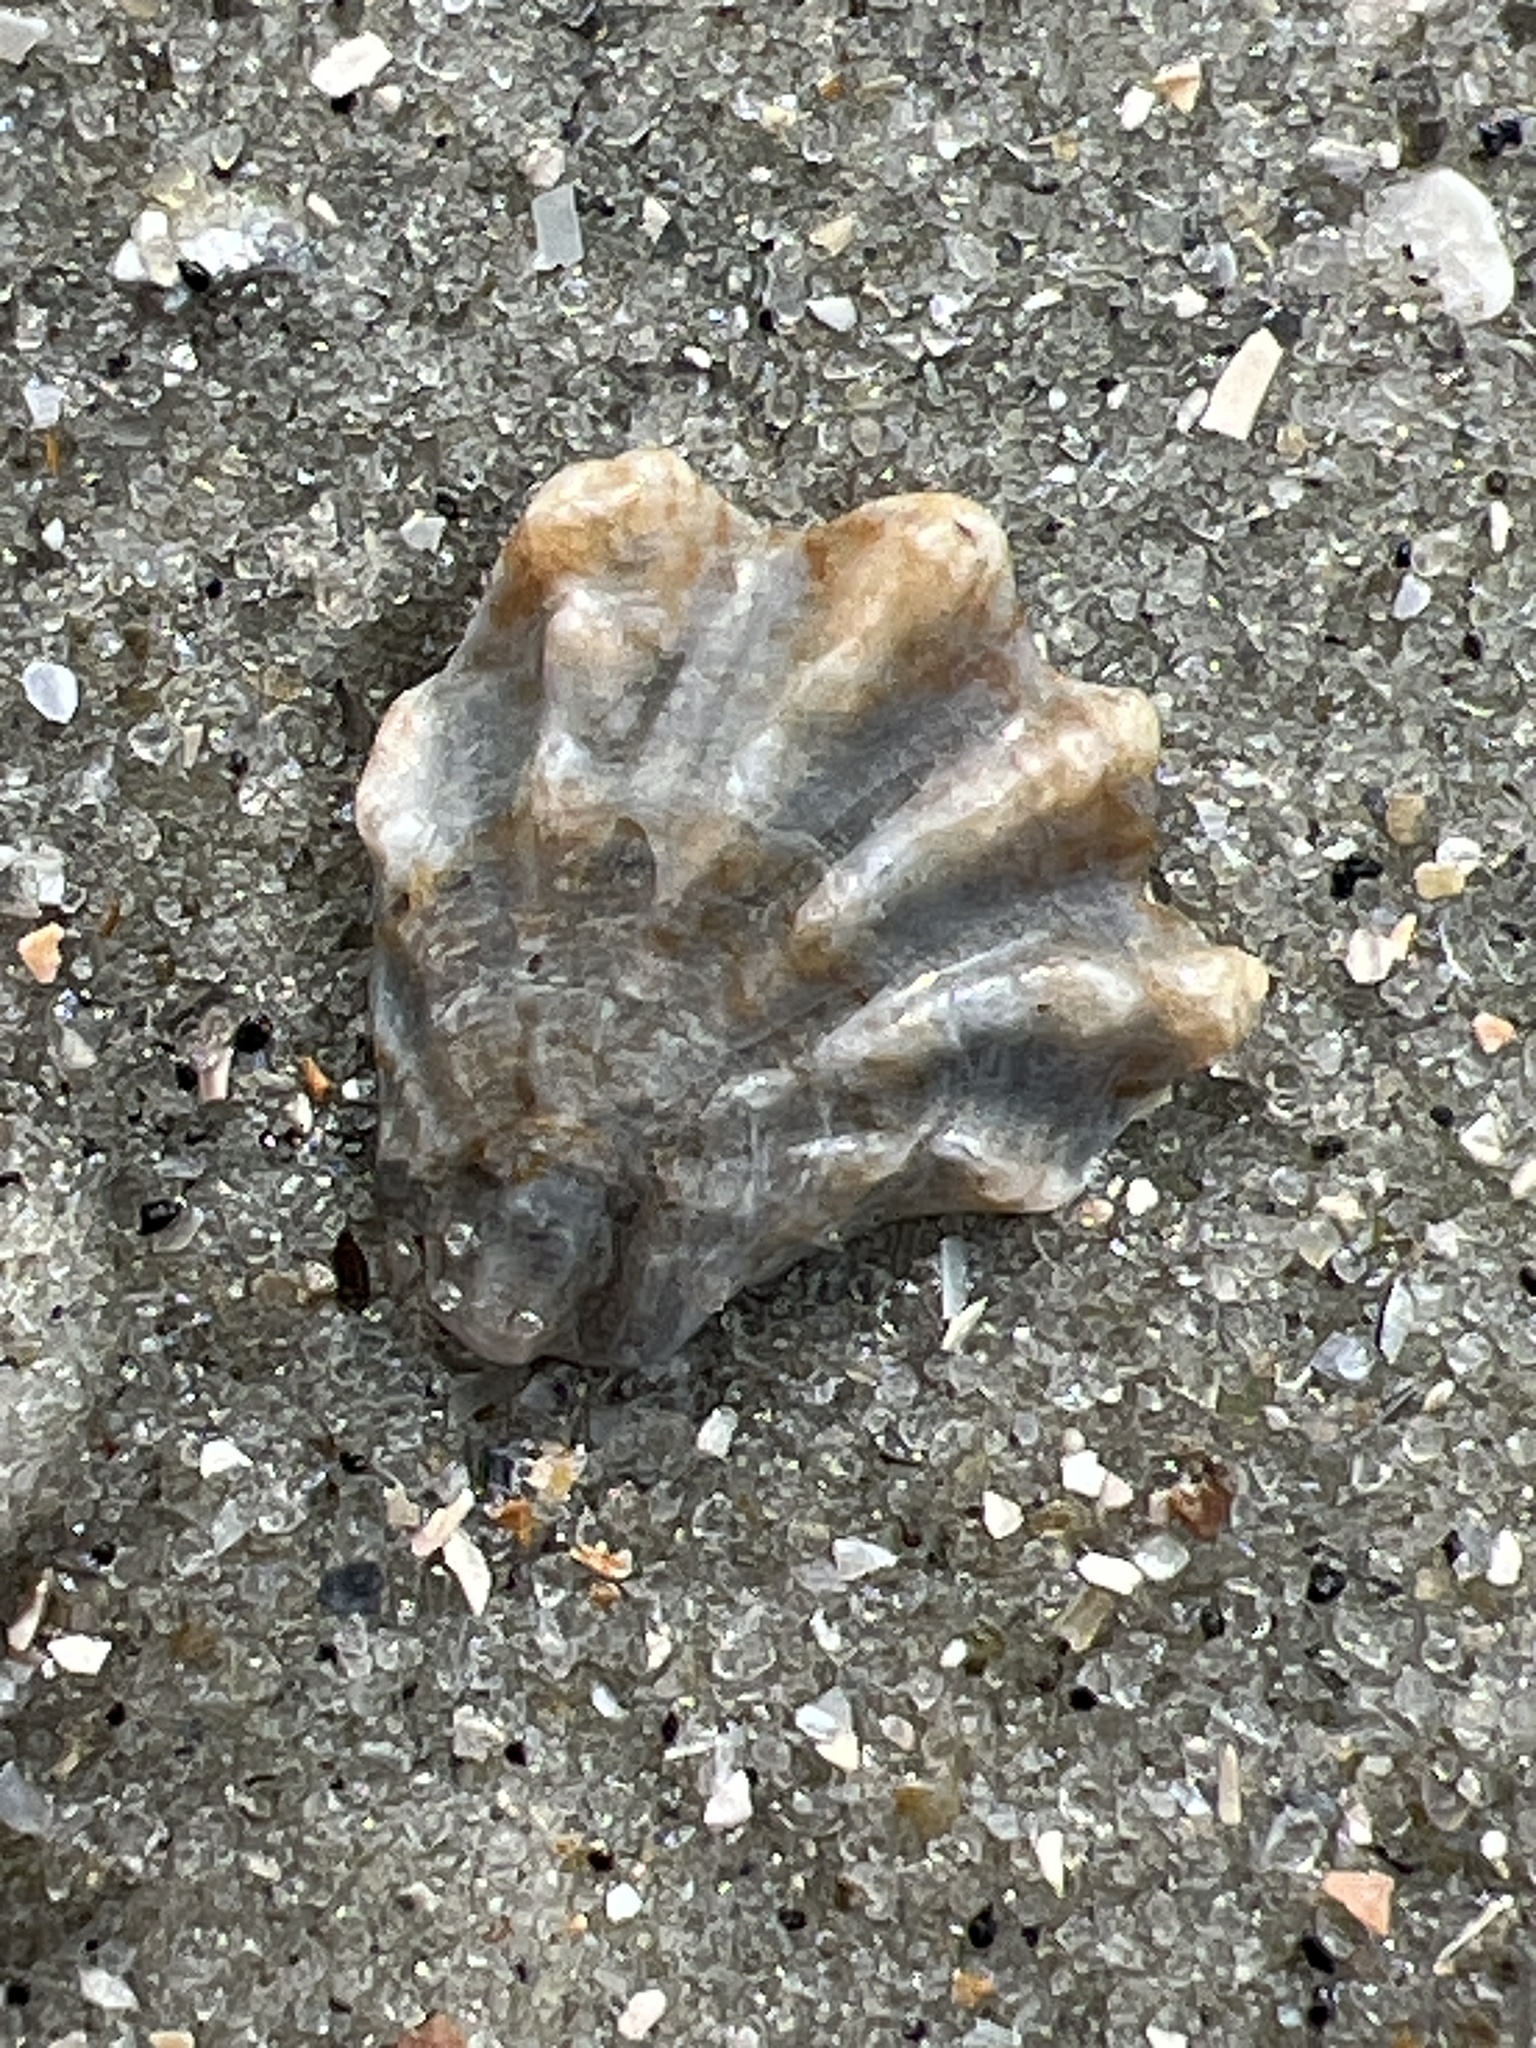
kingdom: Animalia
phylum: Mollusca
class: Bivalvia
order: Pectinida
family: Plicatulidae
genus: Plicatula
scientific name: Plicatula gibbosa
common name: Atlantic kitten's paw
